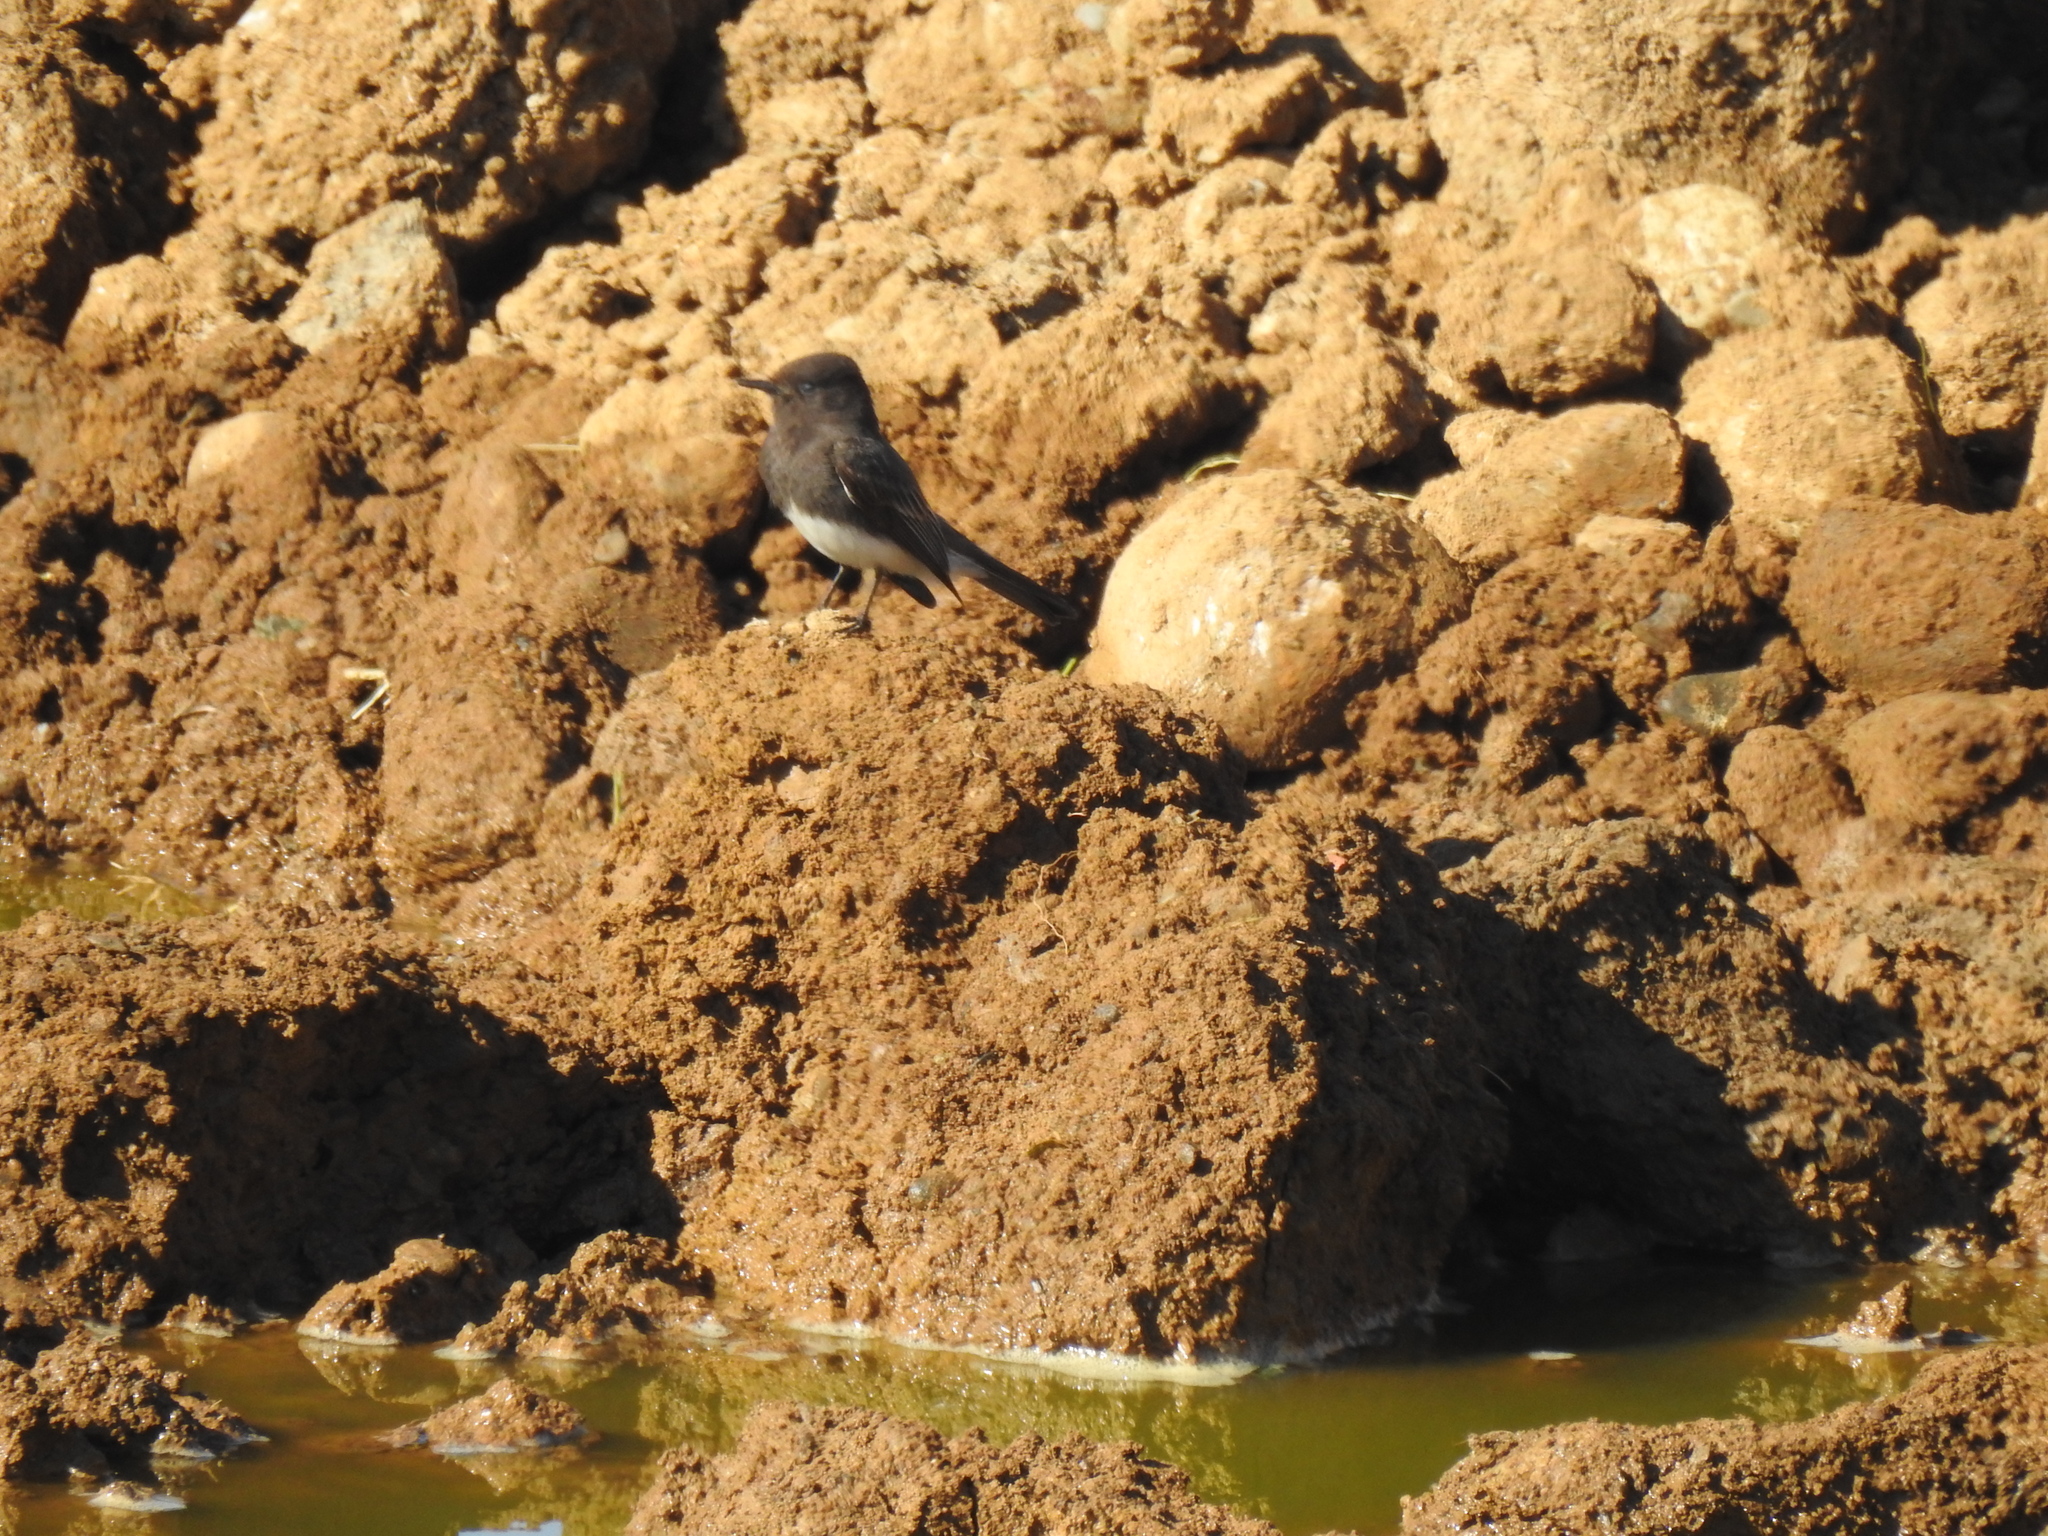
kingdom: Animalia
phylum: Chordata
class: Aves
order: Passeriformes
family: Tyrannidae
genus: Sayornis
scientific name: Sayornis nigricans
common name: Black phoebe
